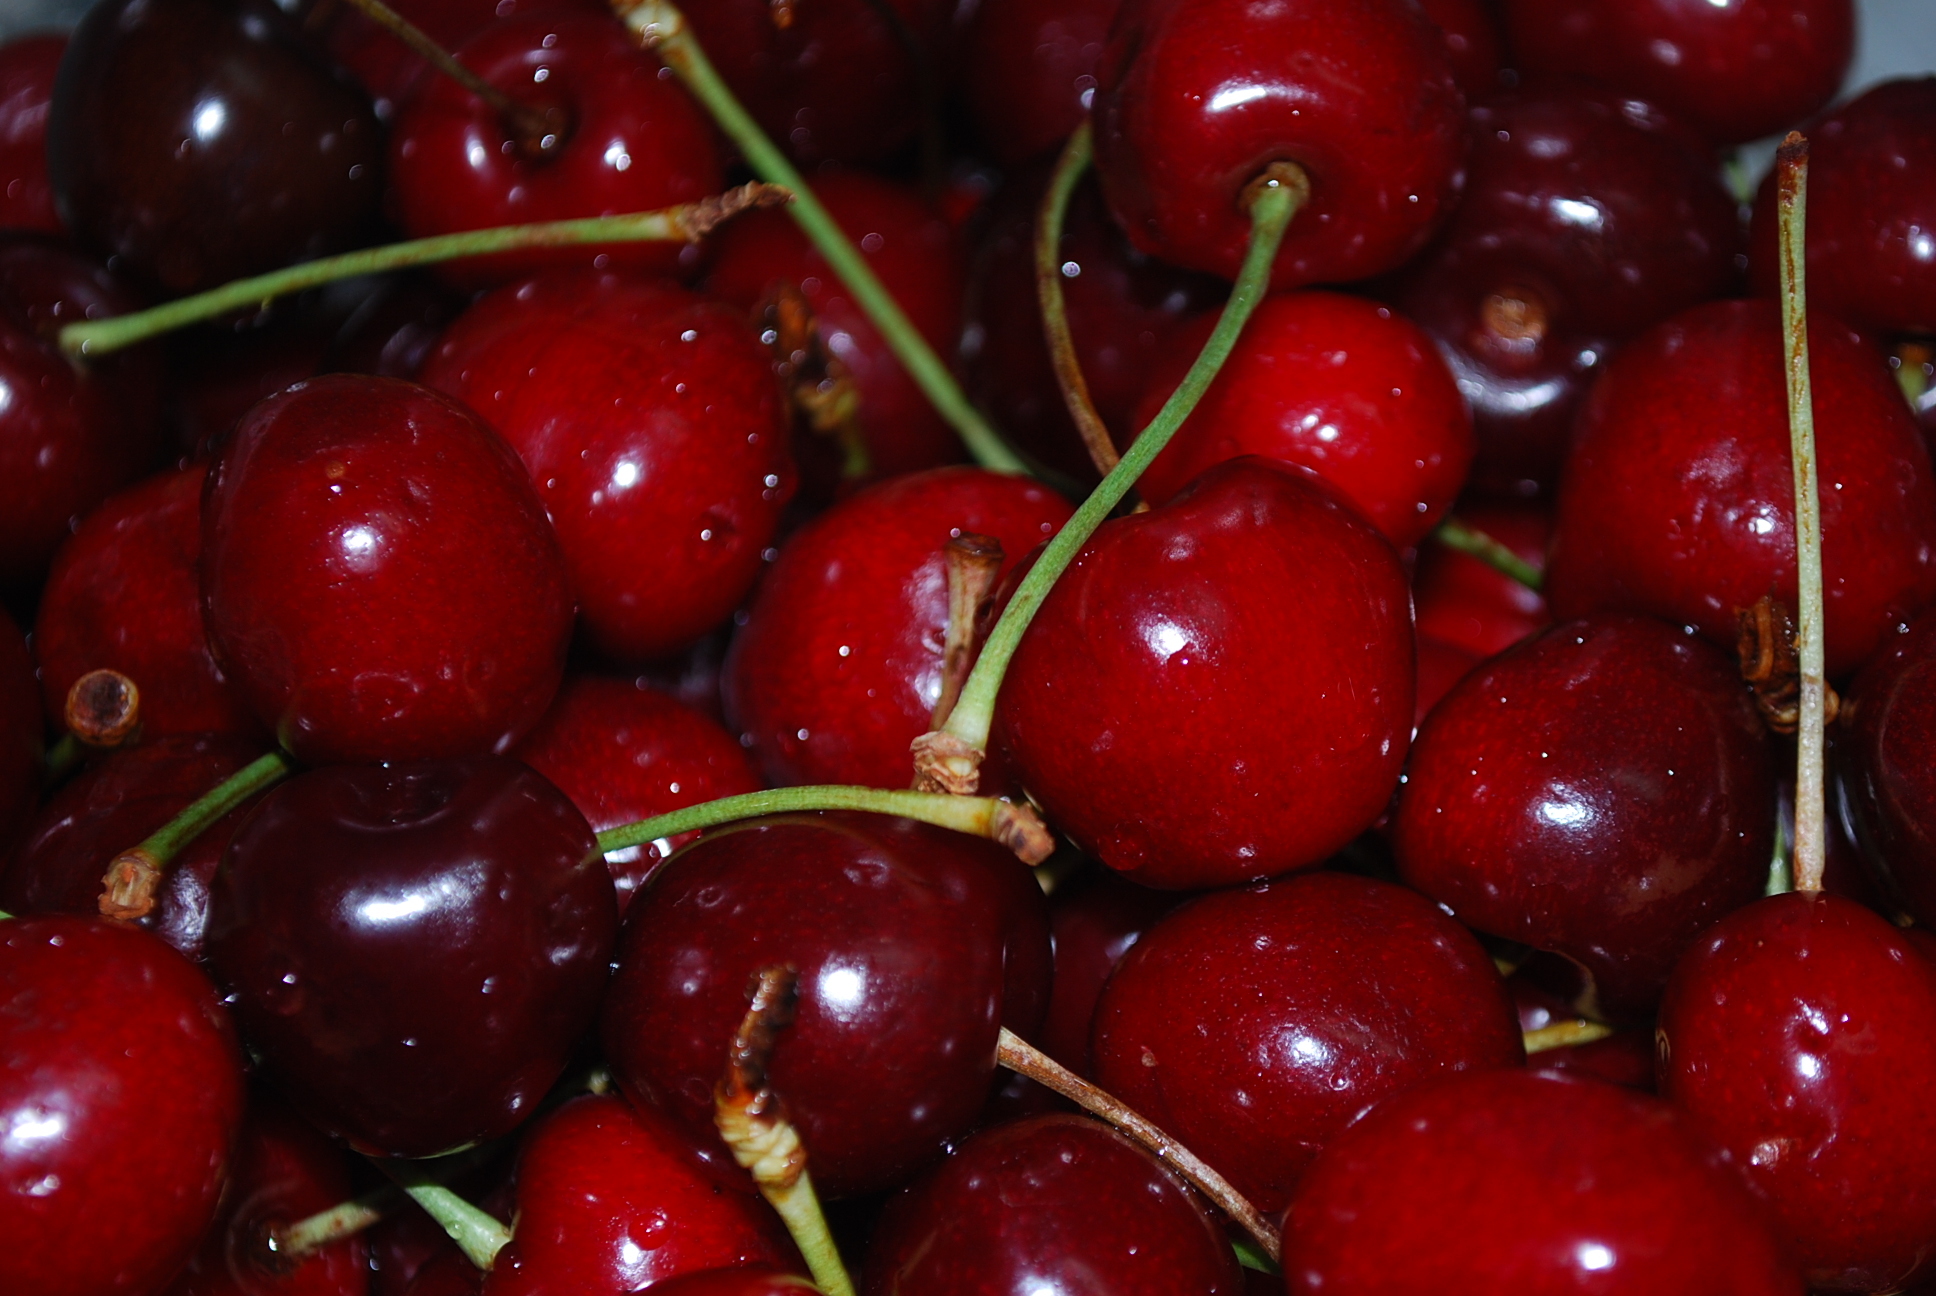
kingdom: Plantae
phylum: Tracheophyta
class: Magnoliopsida
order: Rosales
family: Rosaceae
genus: Prunus
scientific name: Prunus cerasus
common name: Morello cherry
